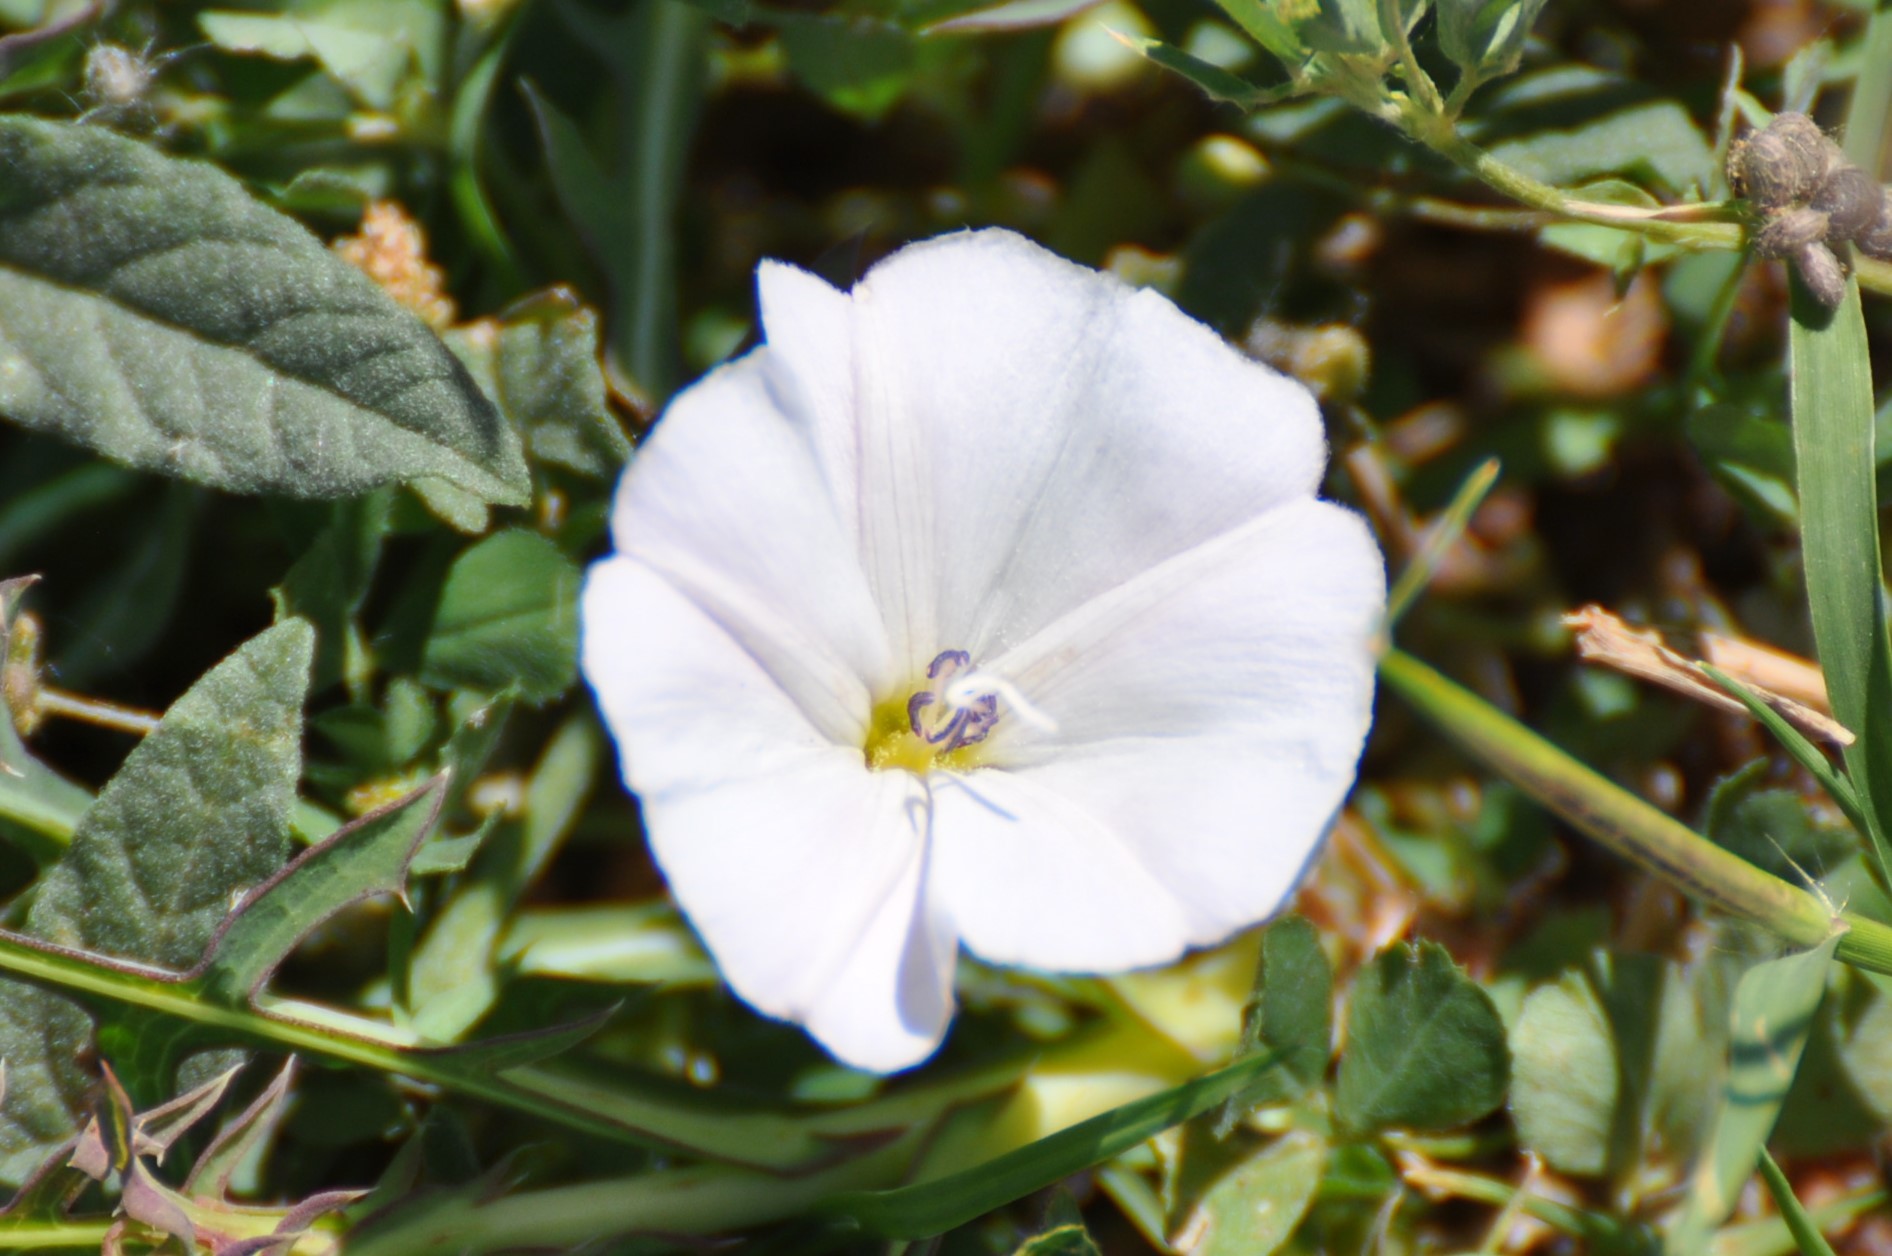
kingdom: Plantae
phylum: Tracheophyta
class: Magnoliopsida
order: Solanales
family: Convolvulaceae
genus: Convolvulus
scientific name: Convolvulus arvensis
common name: Field bindweed
